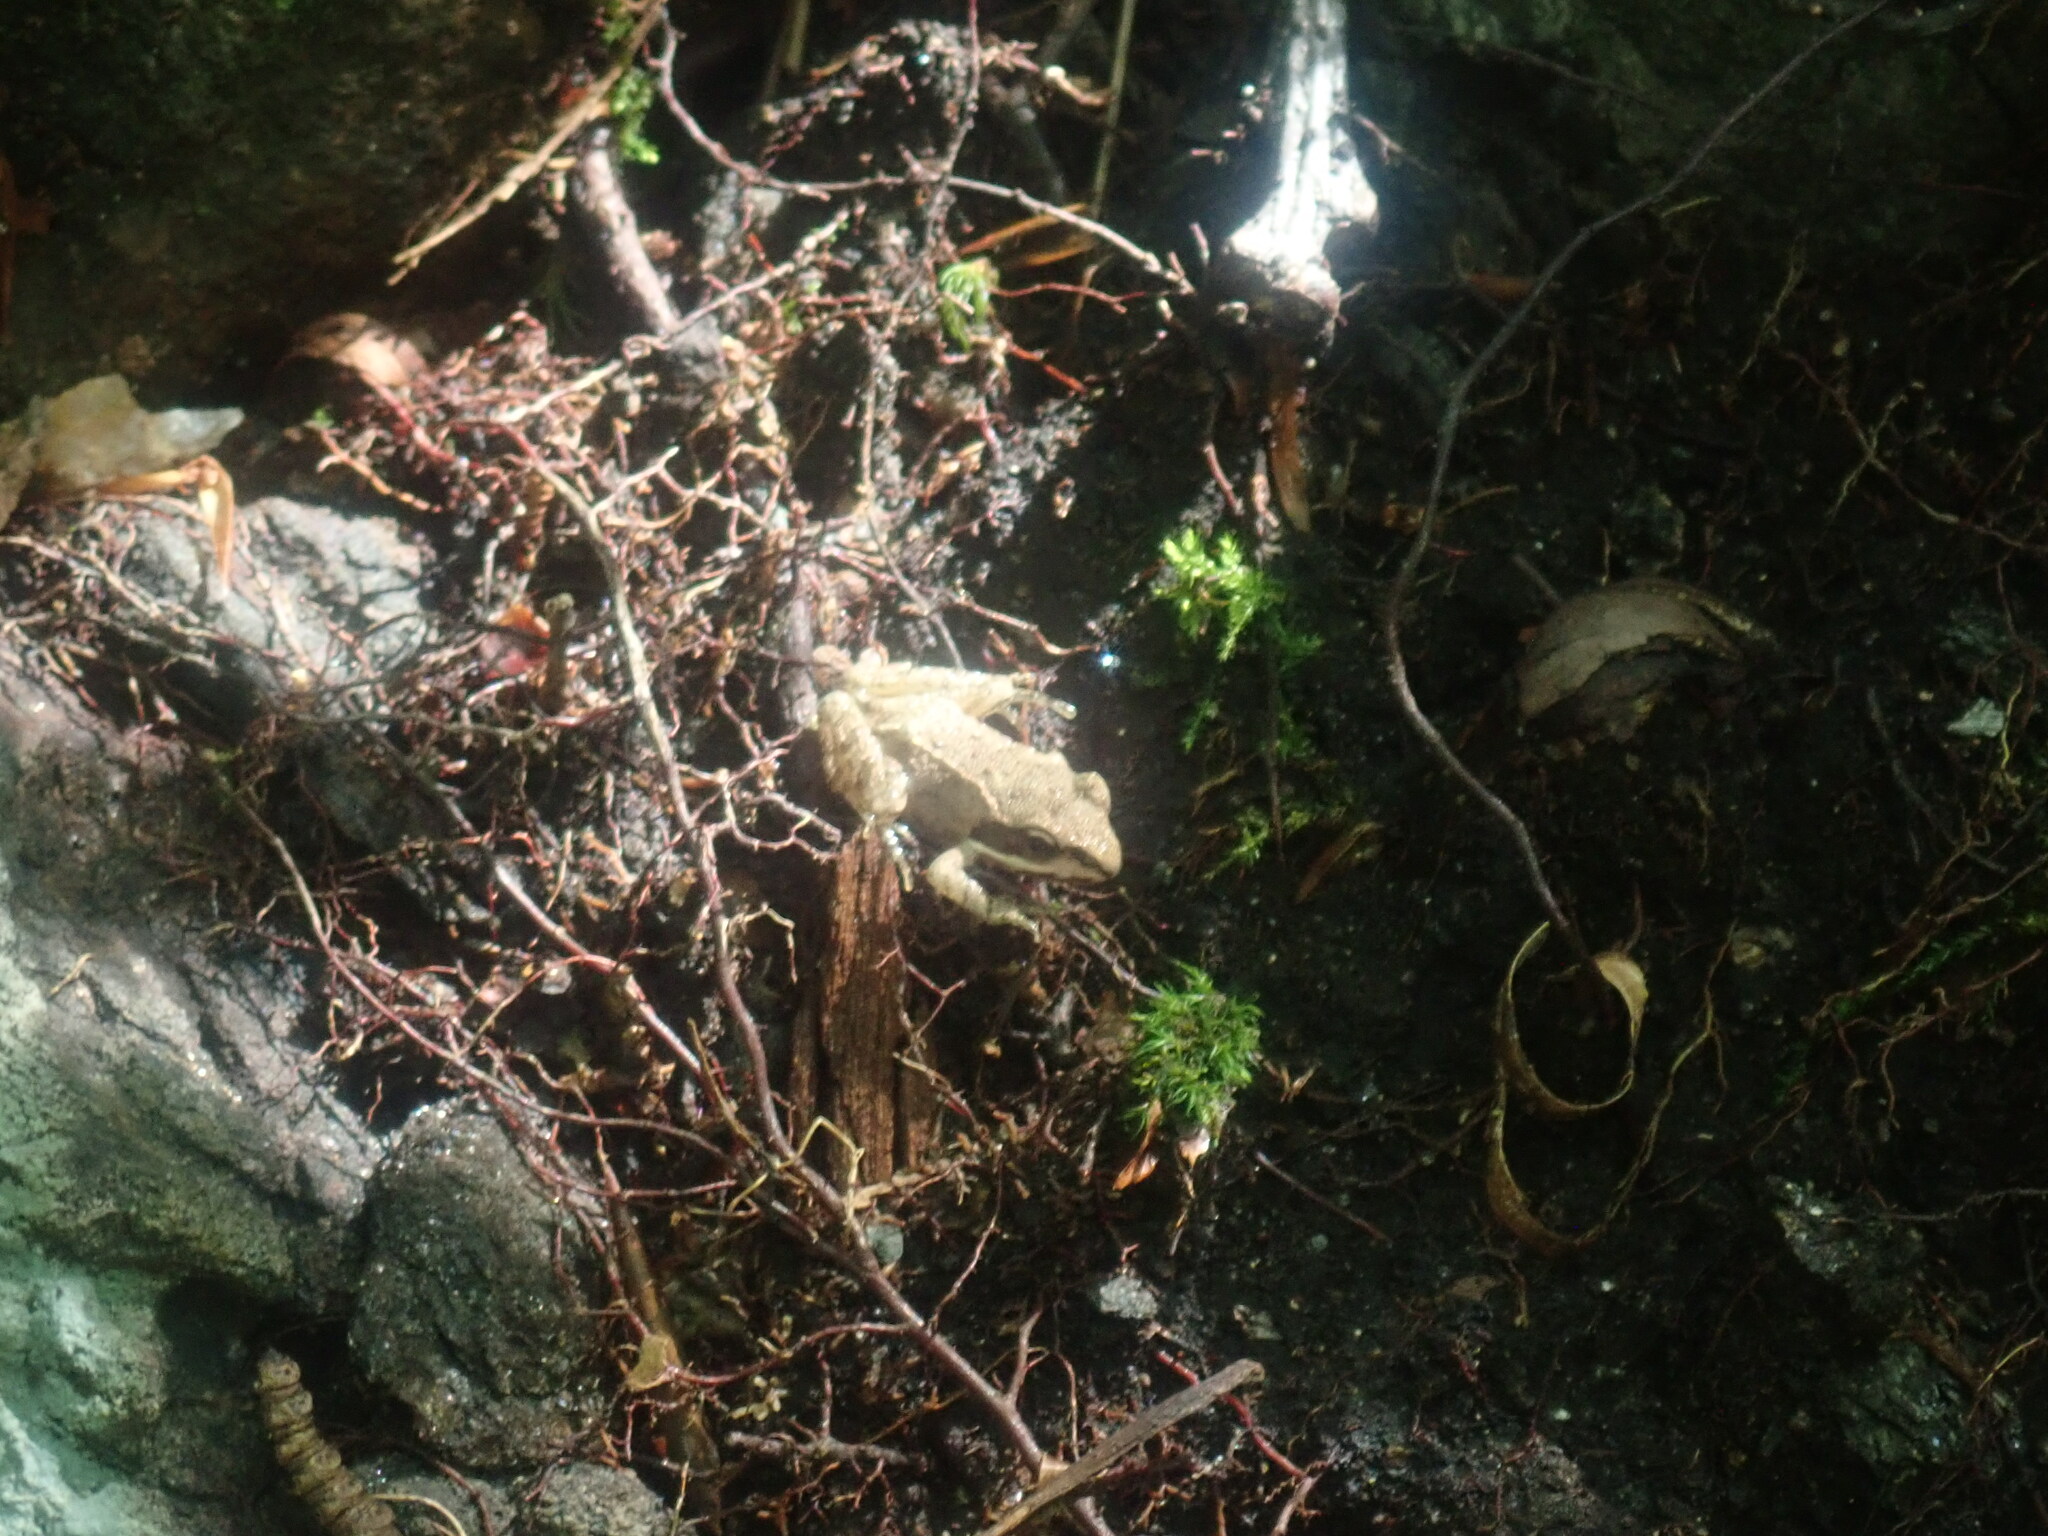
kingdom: Animalia
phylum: Chordata
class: Amphibia
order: Anura
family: Ranidae
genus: Lithobates
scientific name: Lithobates sylvaticus
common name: Wood frog
